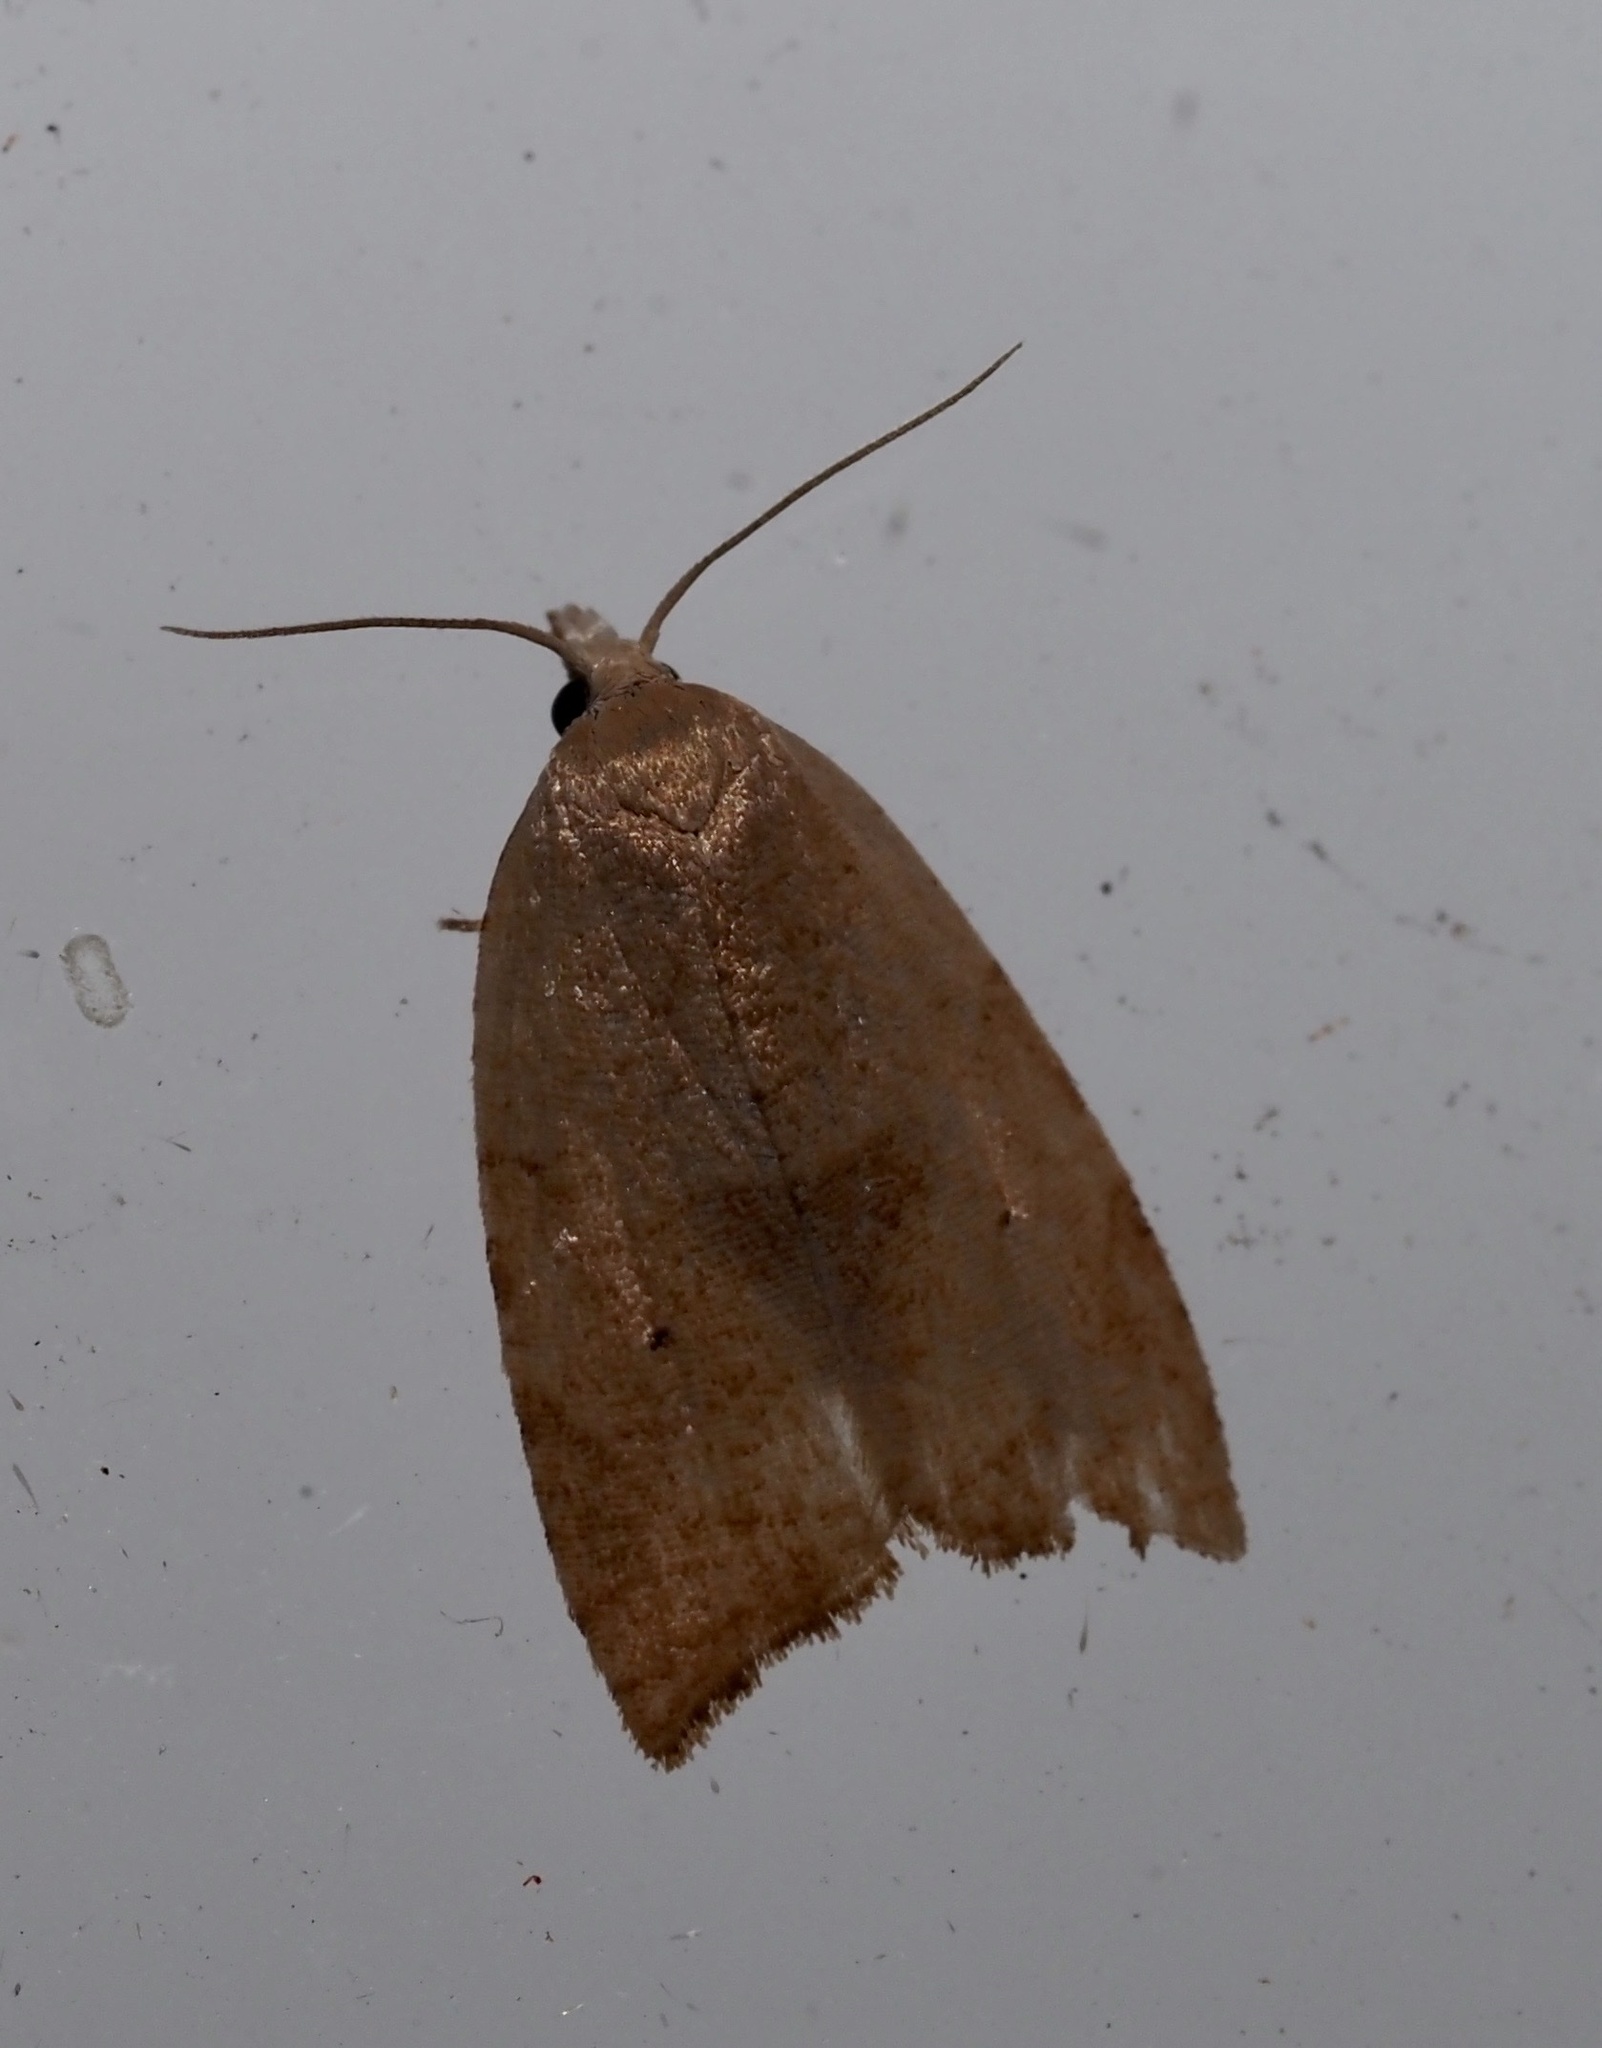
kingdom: Animalia
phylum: Arthropoda
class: Insecta
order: Lepidoptera
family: Tortricidae
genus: Coelostathma
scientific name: Coelostathma discopunctana
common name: Batman moth
